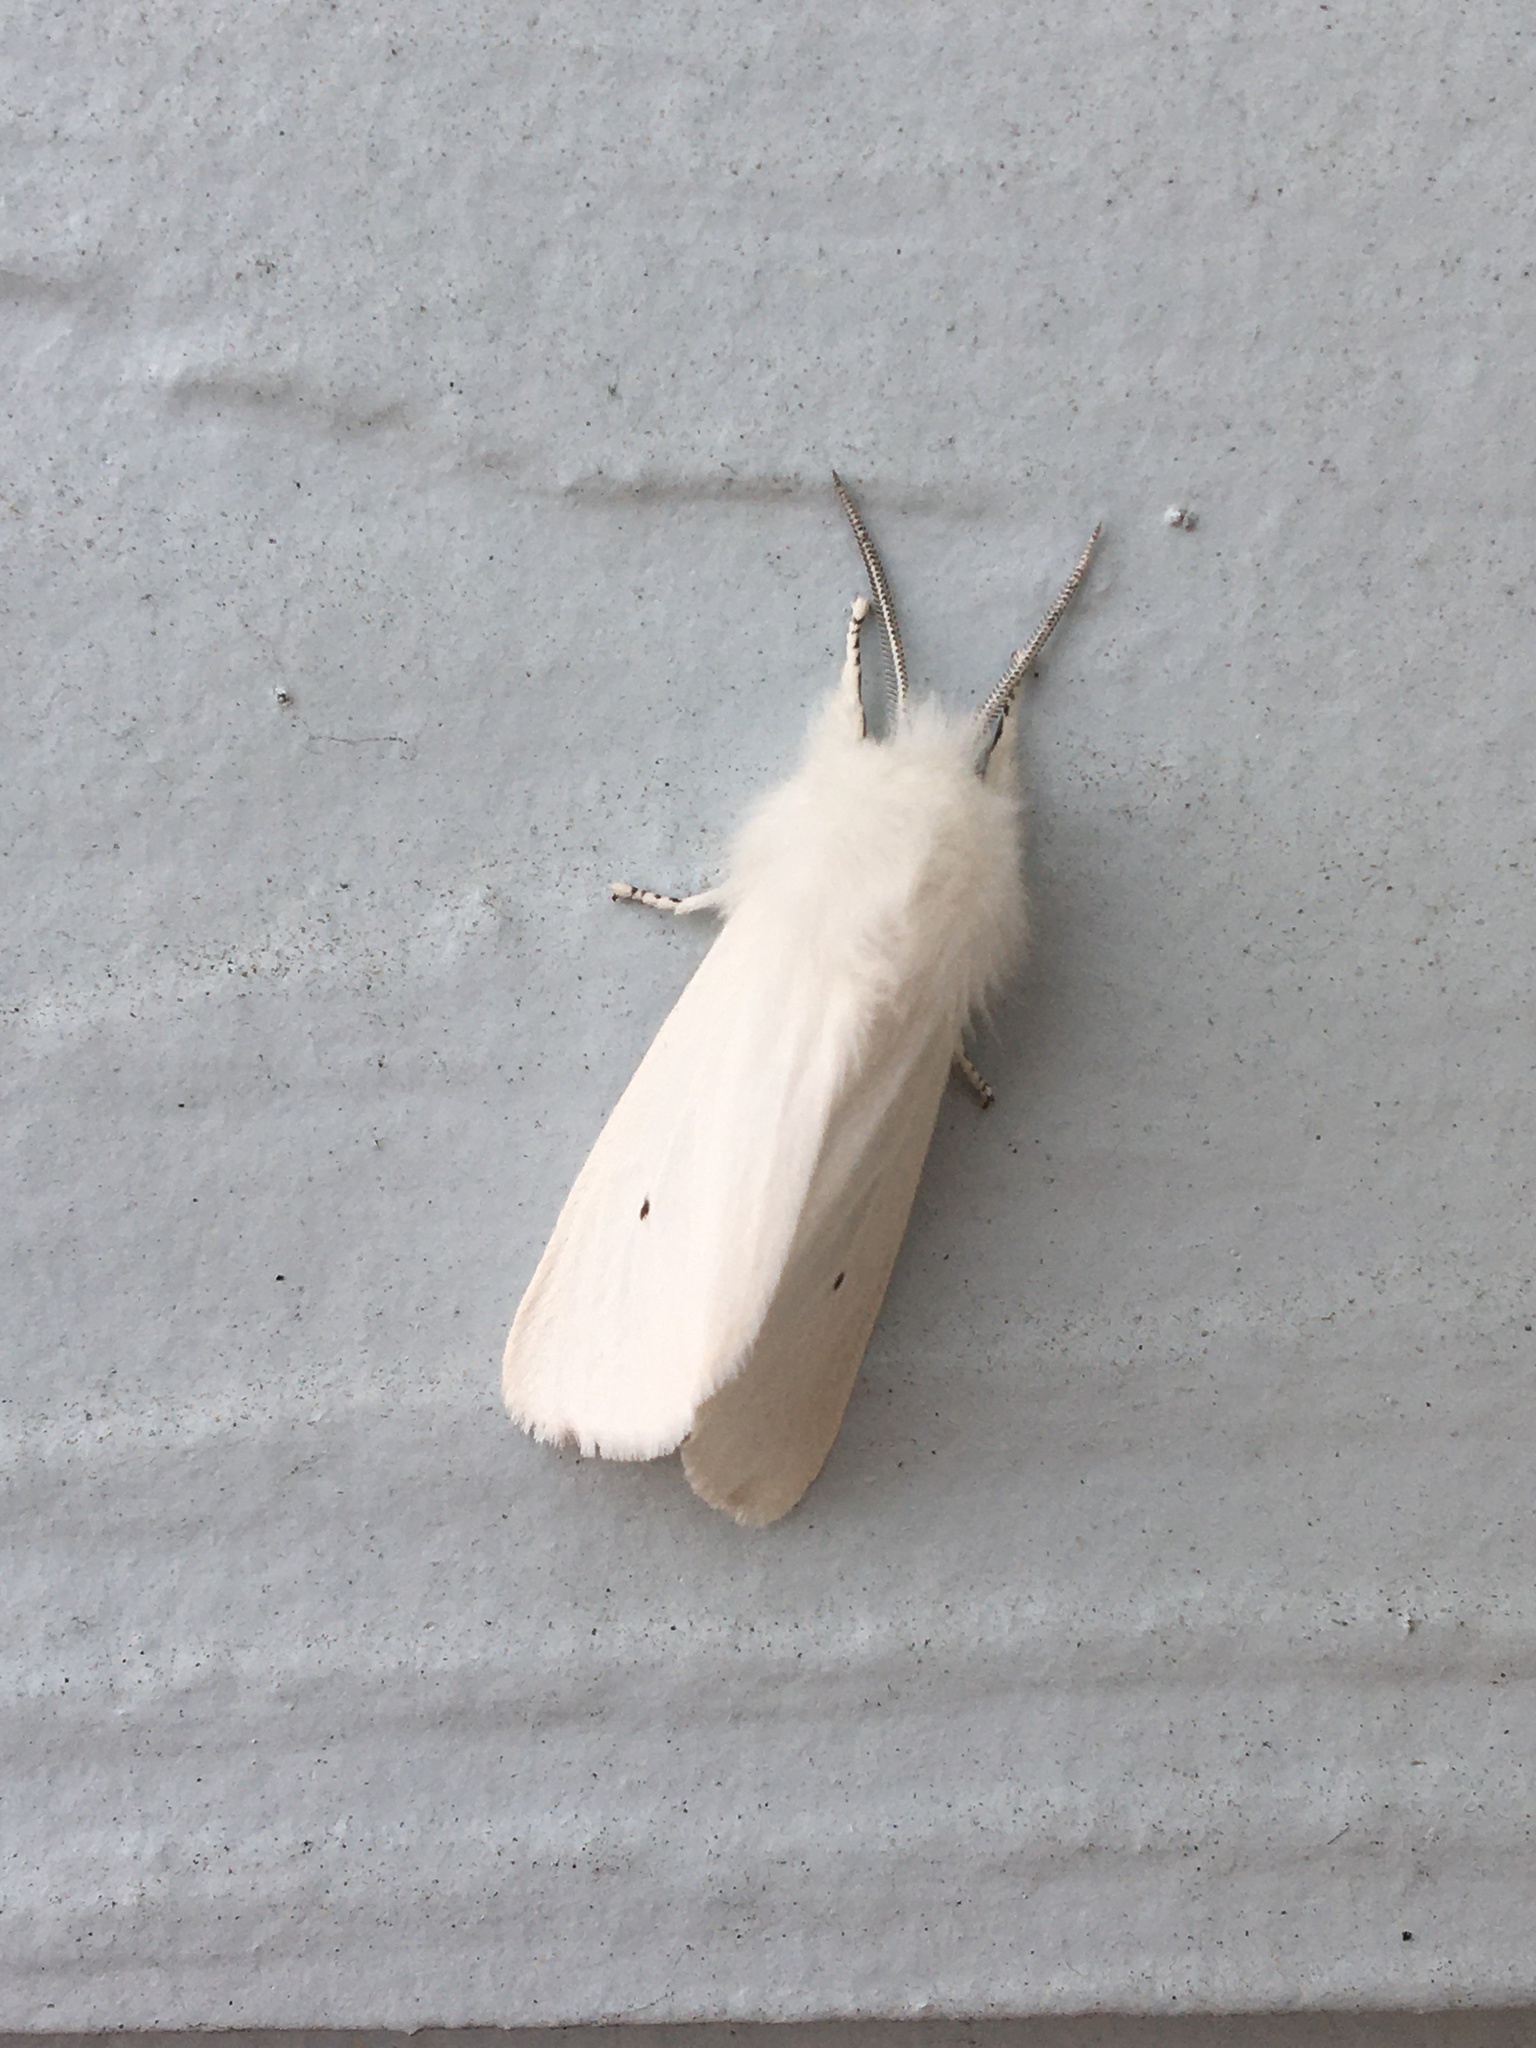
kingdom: Animalia
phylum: Arthropoda
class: Insecta
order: Lepidoptera
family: Erebidae
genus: Spilosoma
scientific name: Spilosoma virginica
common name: Virginia tiger moth
